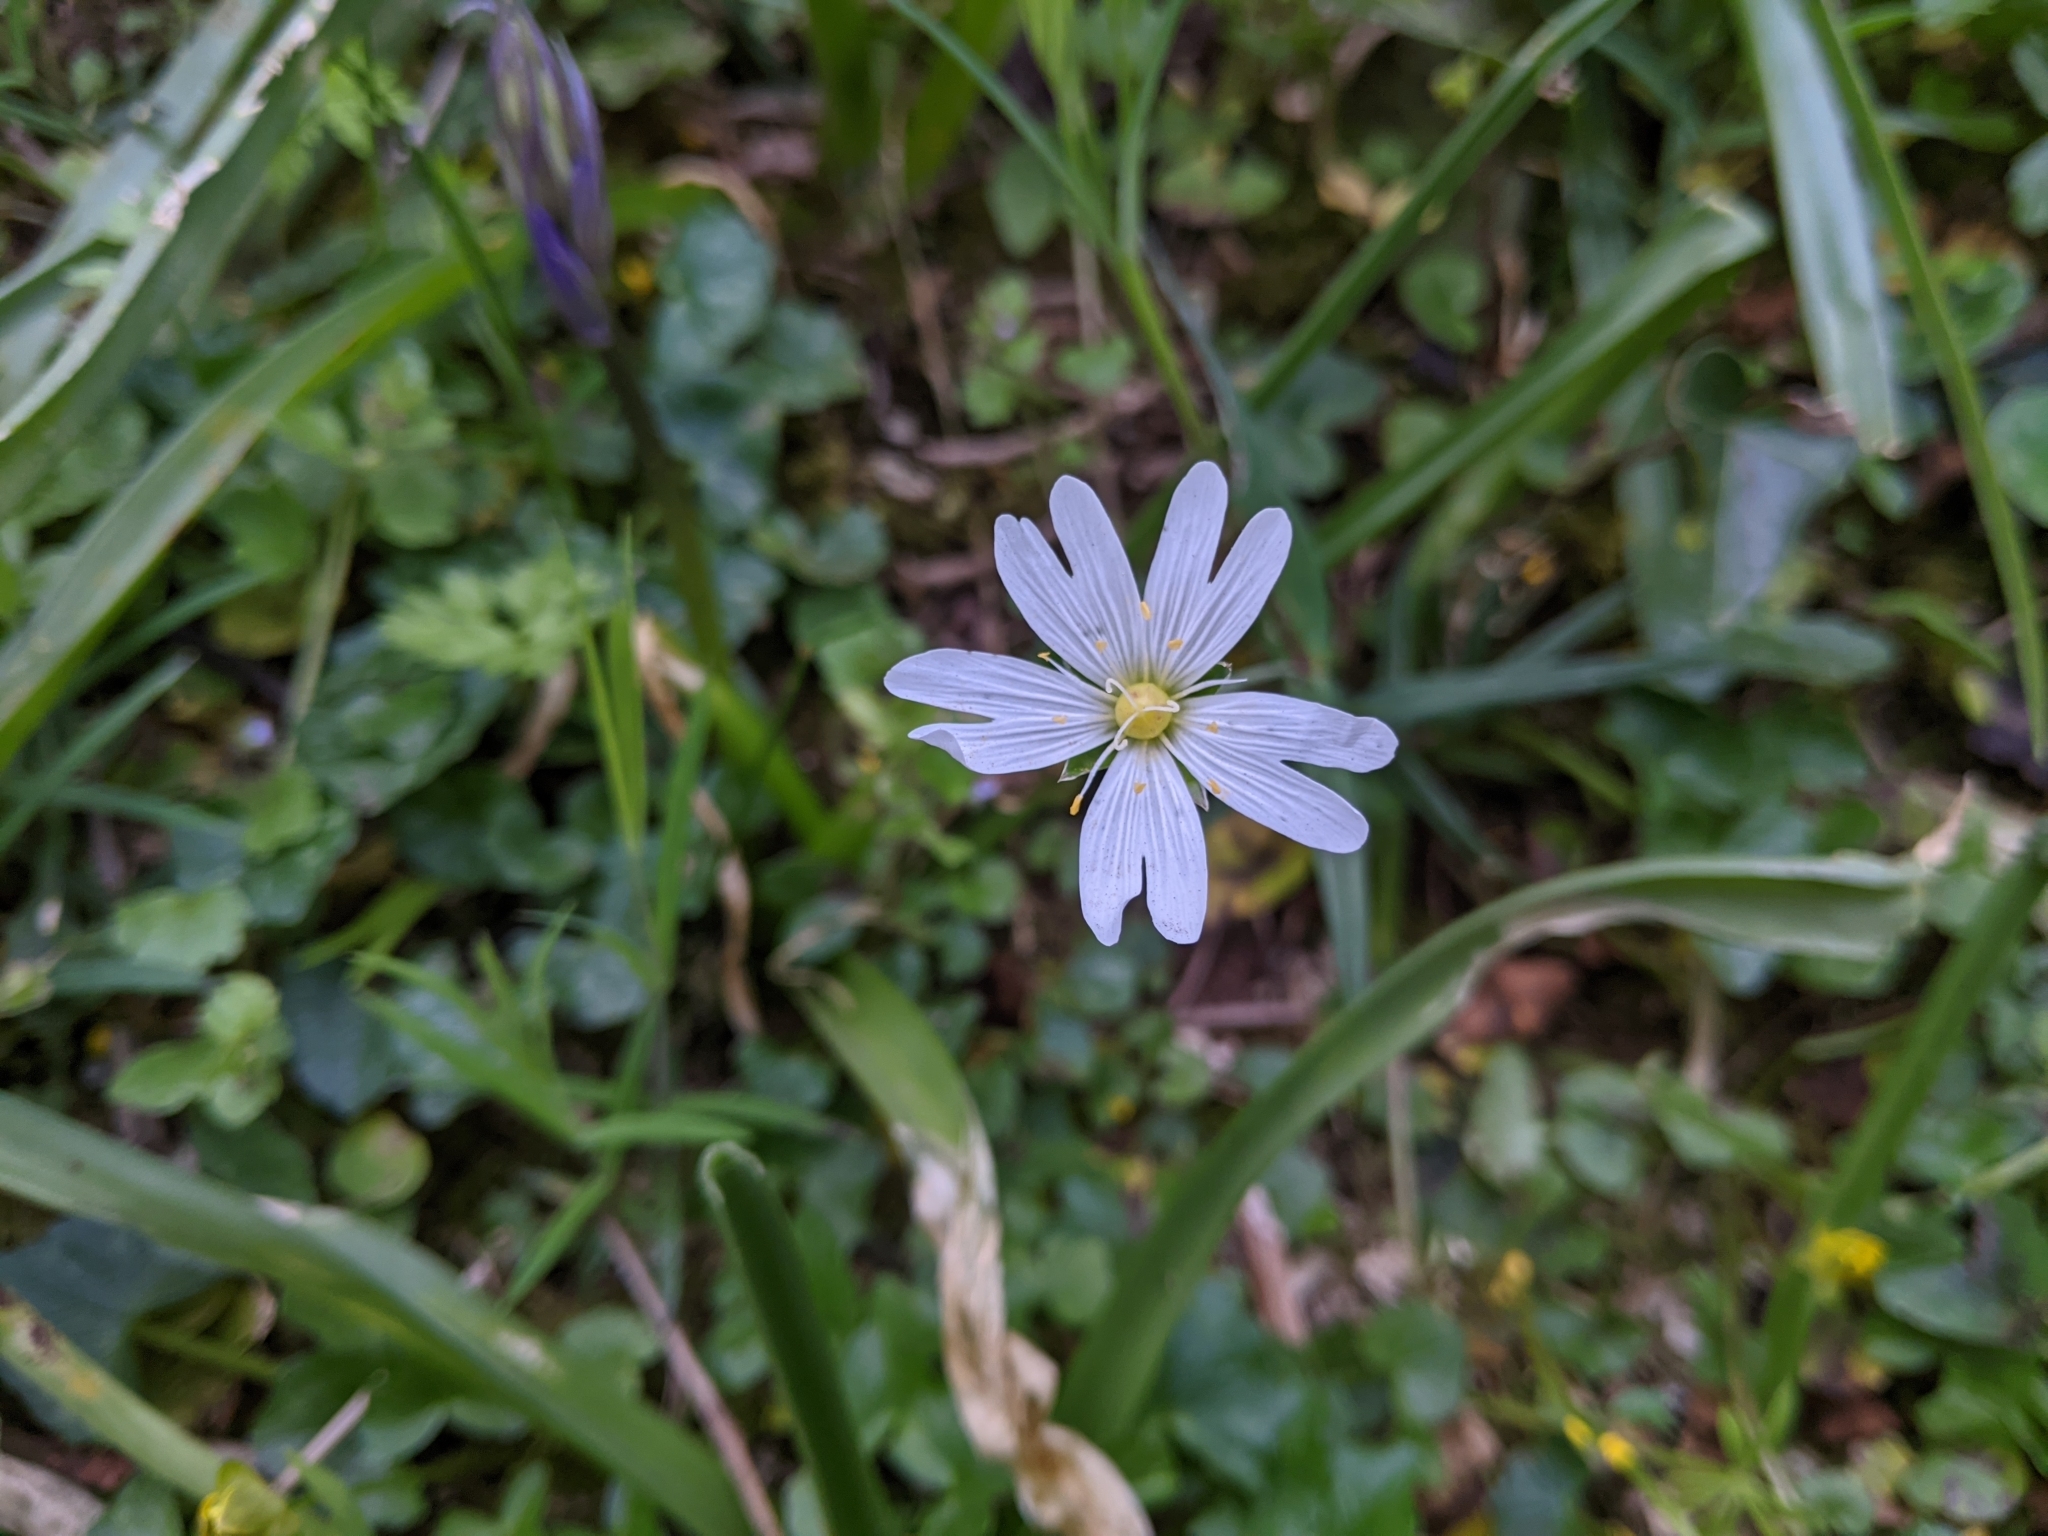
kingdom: Plantae
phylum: Tracheophyta
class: Magnoliopsida
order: Caryophyllales
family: Caryophyllaceae
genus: Rabelera
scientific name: Rabelera holostea
